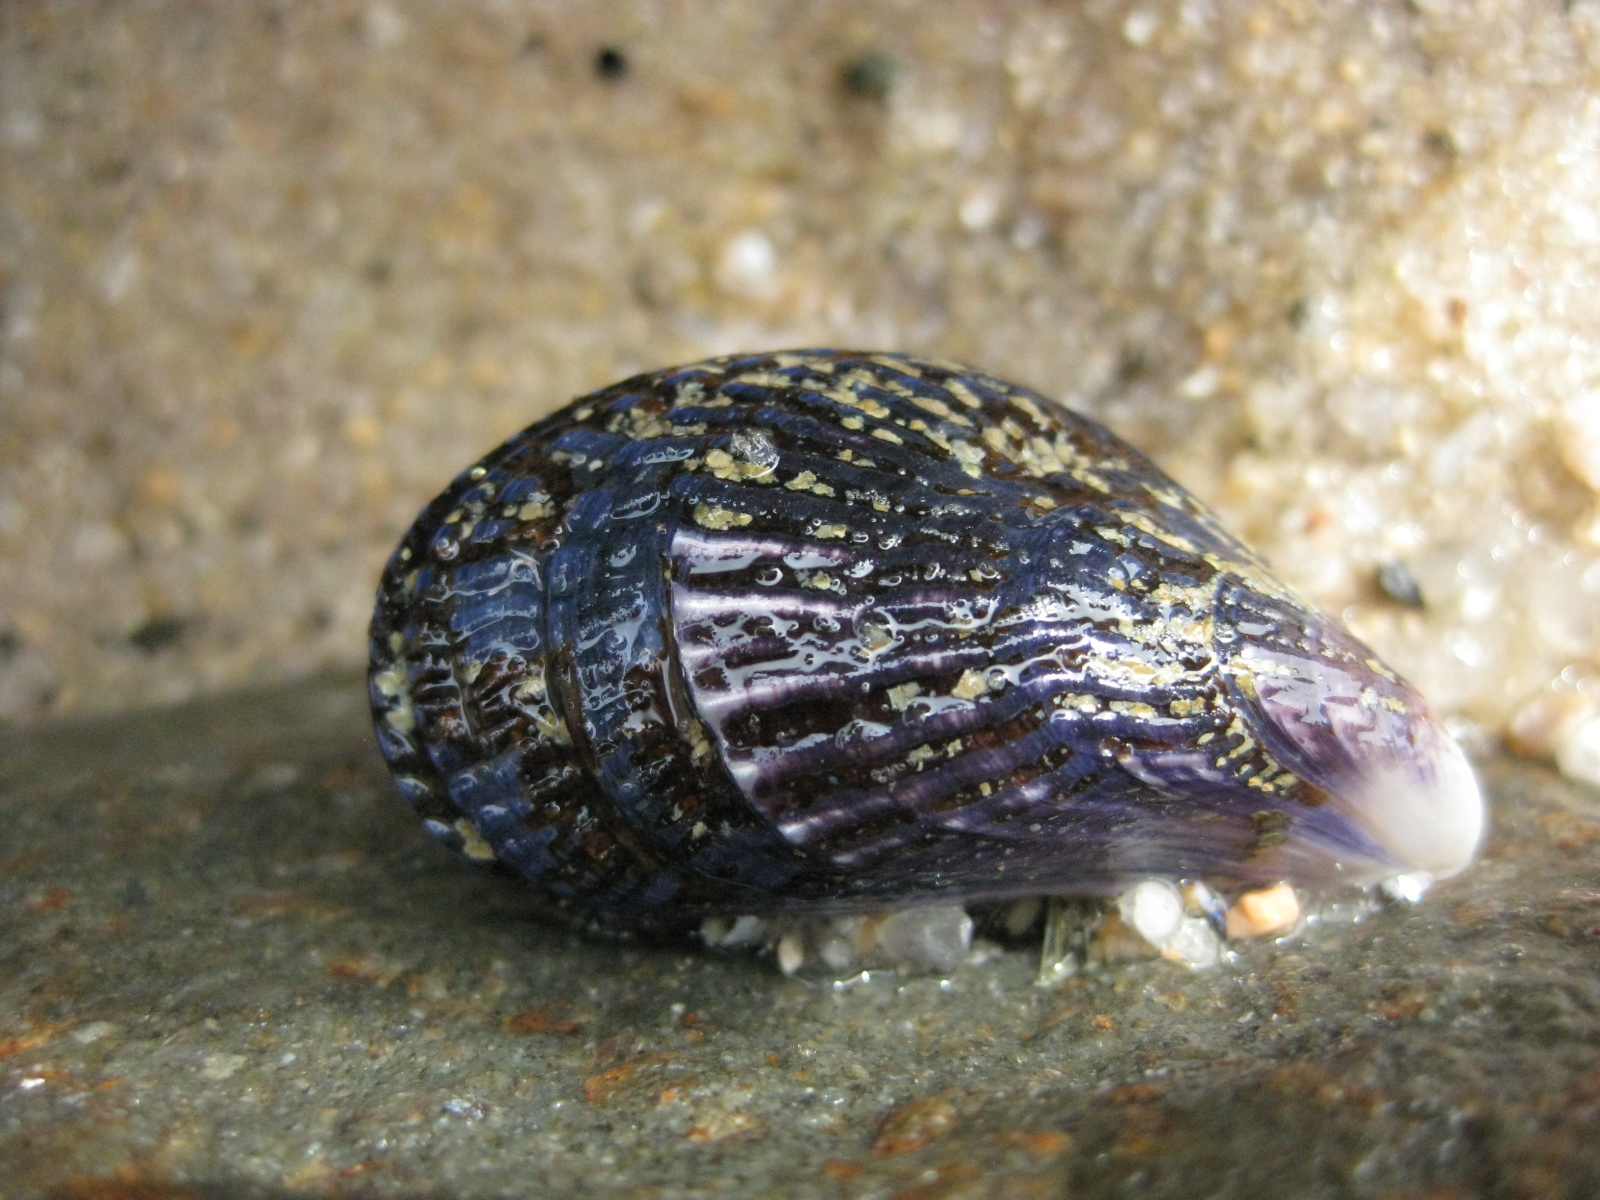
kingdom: Animalia
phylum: Mollusca
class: Bivalvia
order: Mytilida
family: Mytilidae
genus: Aulacomya
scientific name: Aulacomya maoriana
